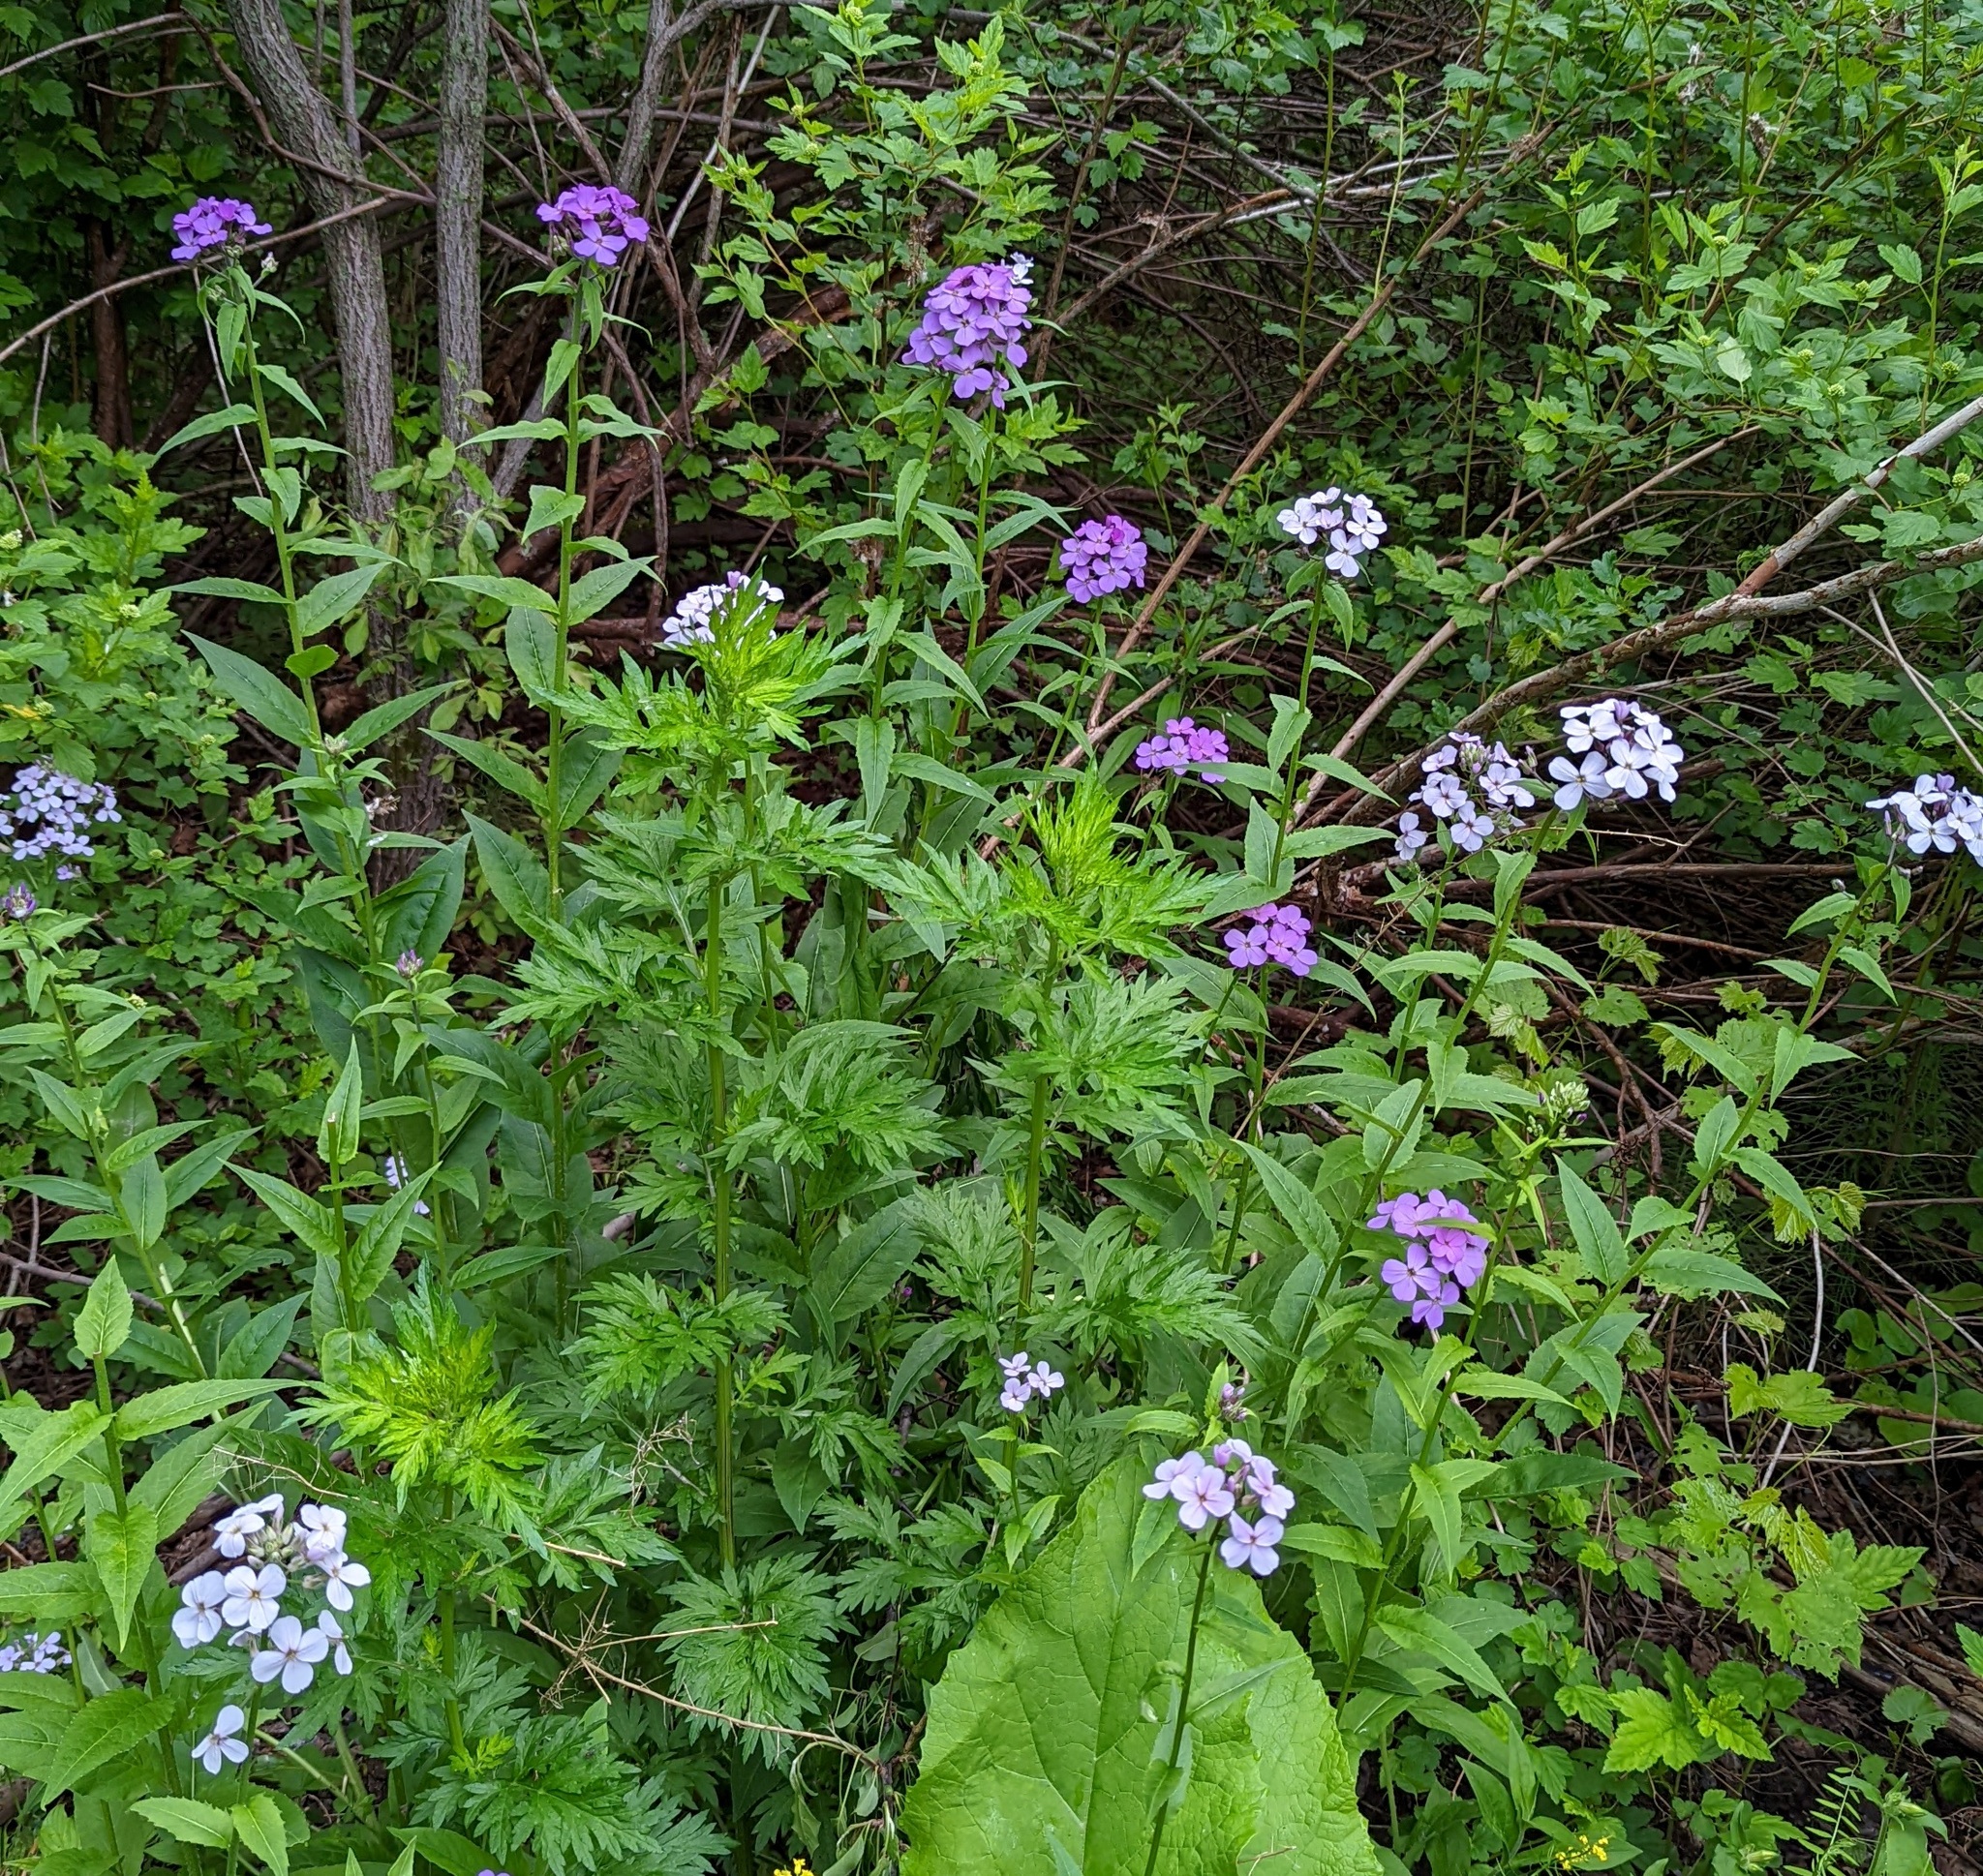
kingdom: Plantae
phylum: Tracheophyta
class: Magnoliopsida
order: Brassicales
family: Brassicaceae
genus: Hesperis
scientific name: Hesperis matronalis
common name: Dame's-violet
